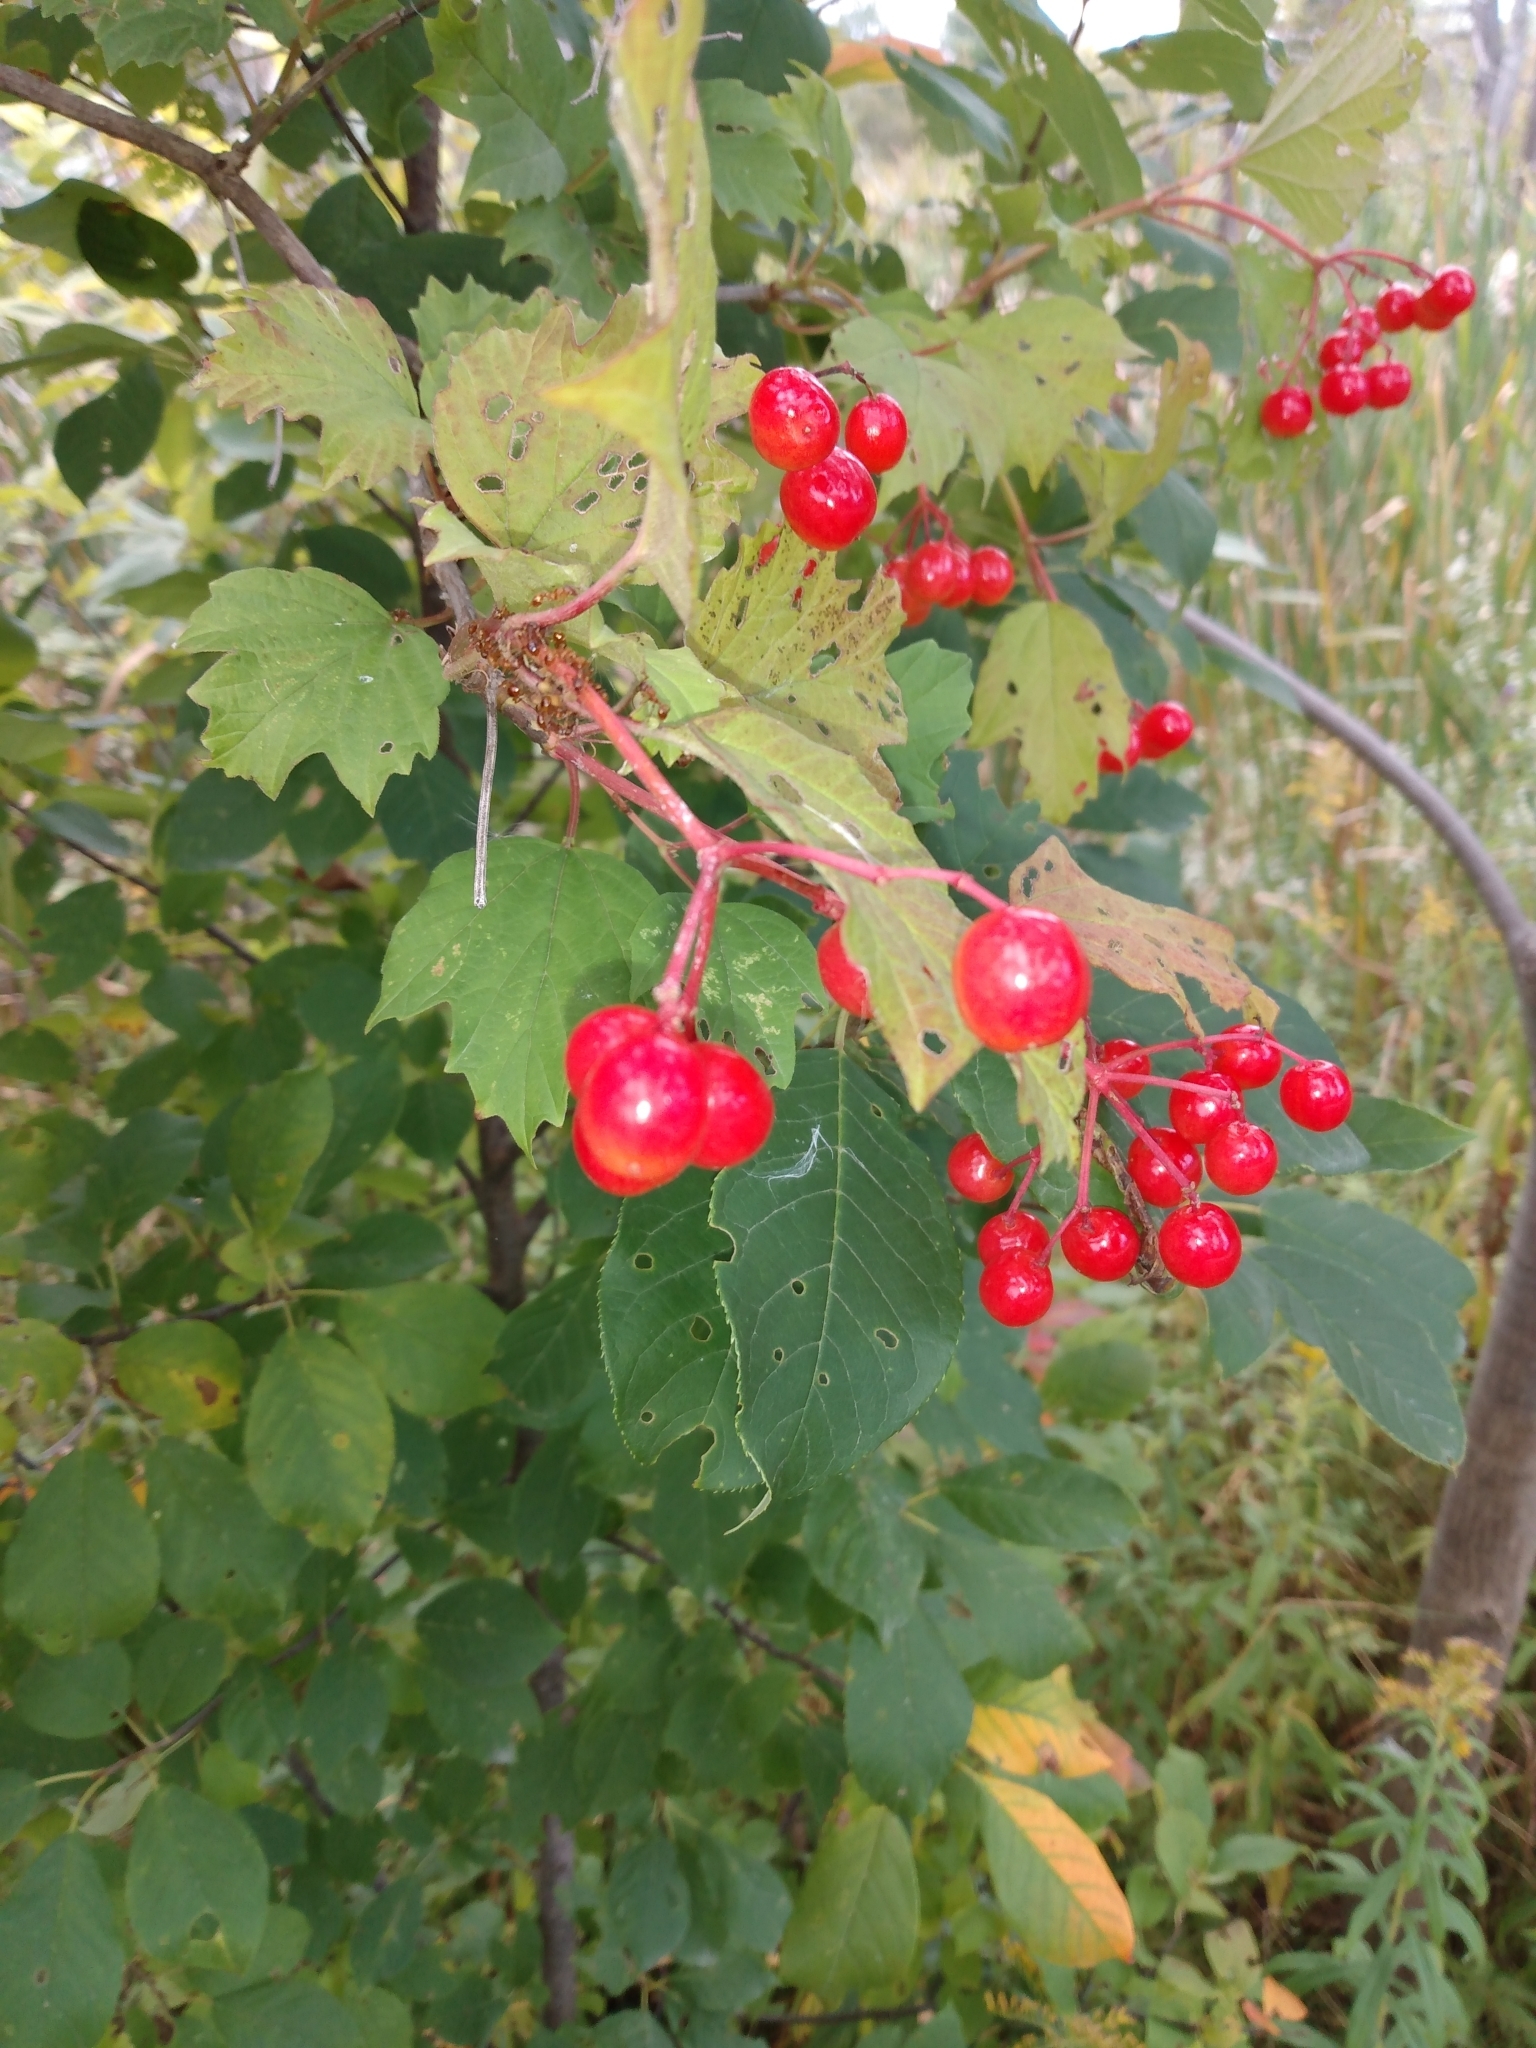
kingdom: Plantae
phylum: Tracheophyta
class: Magnoliopsida
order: Dipsacales
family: Viburnaceae
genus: Viburnum
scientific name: Viburnum opulus
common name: Guelder-rose
